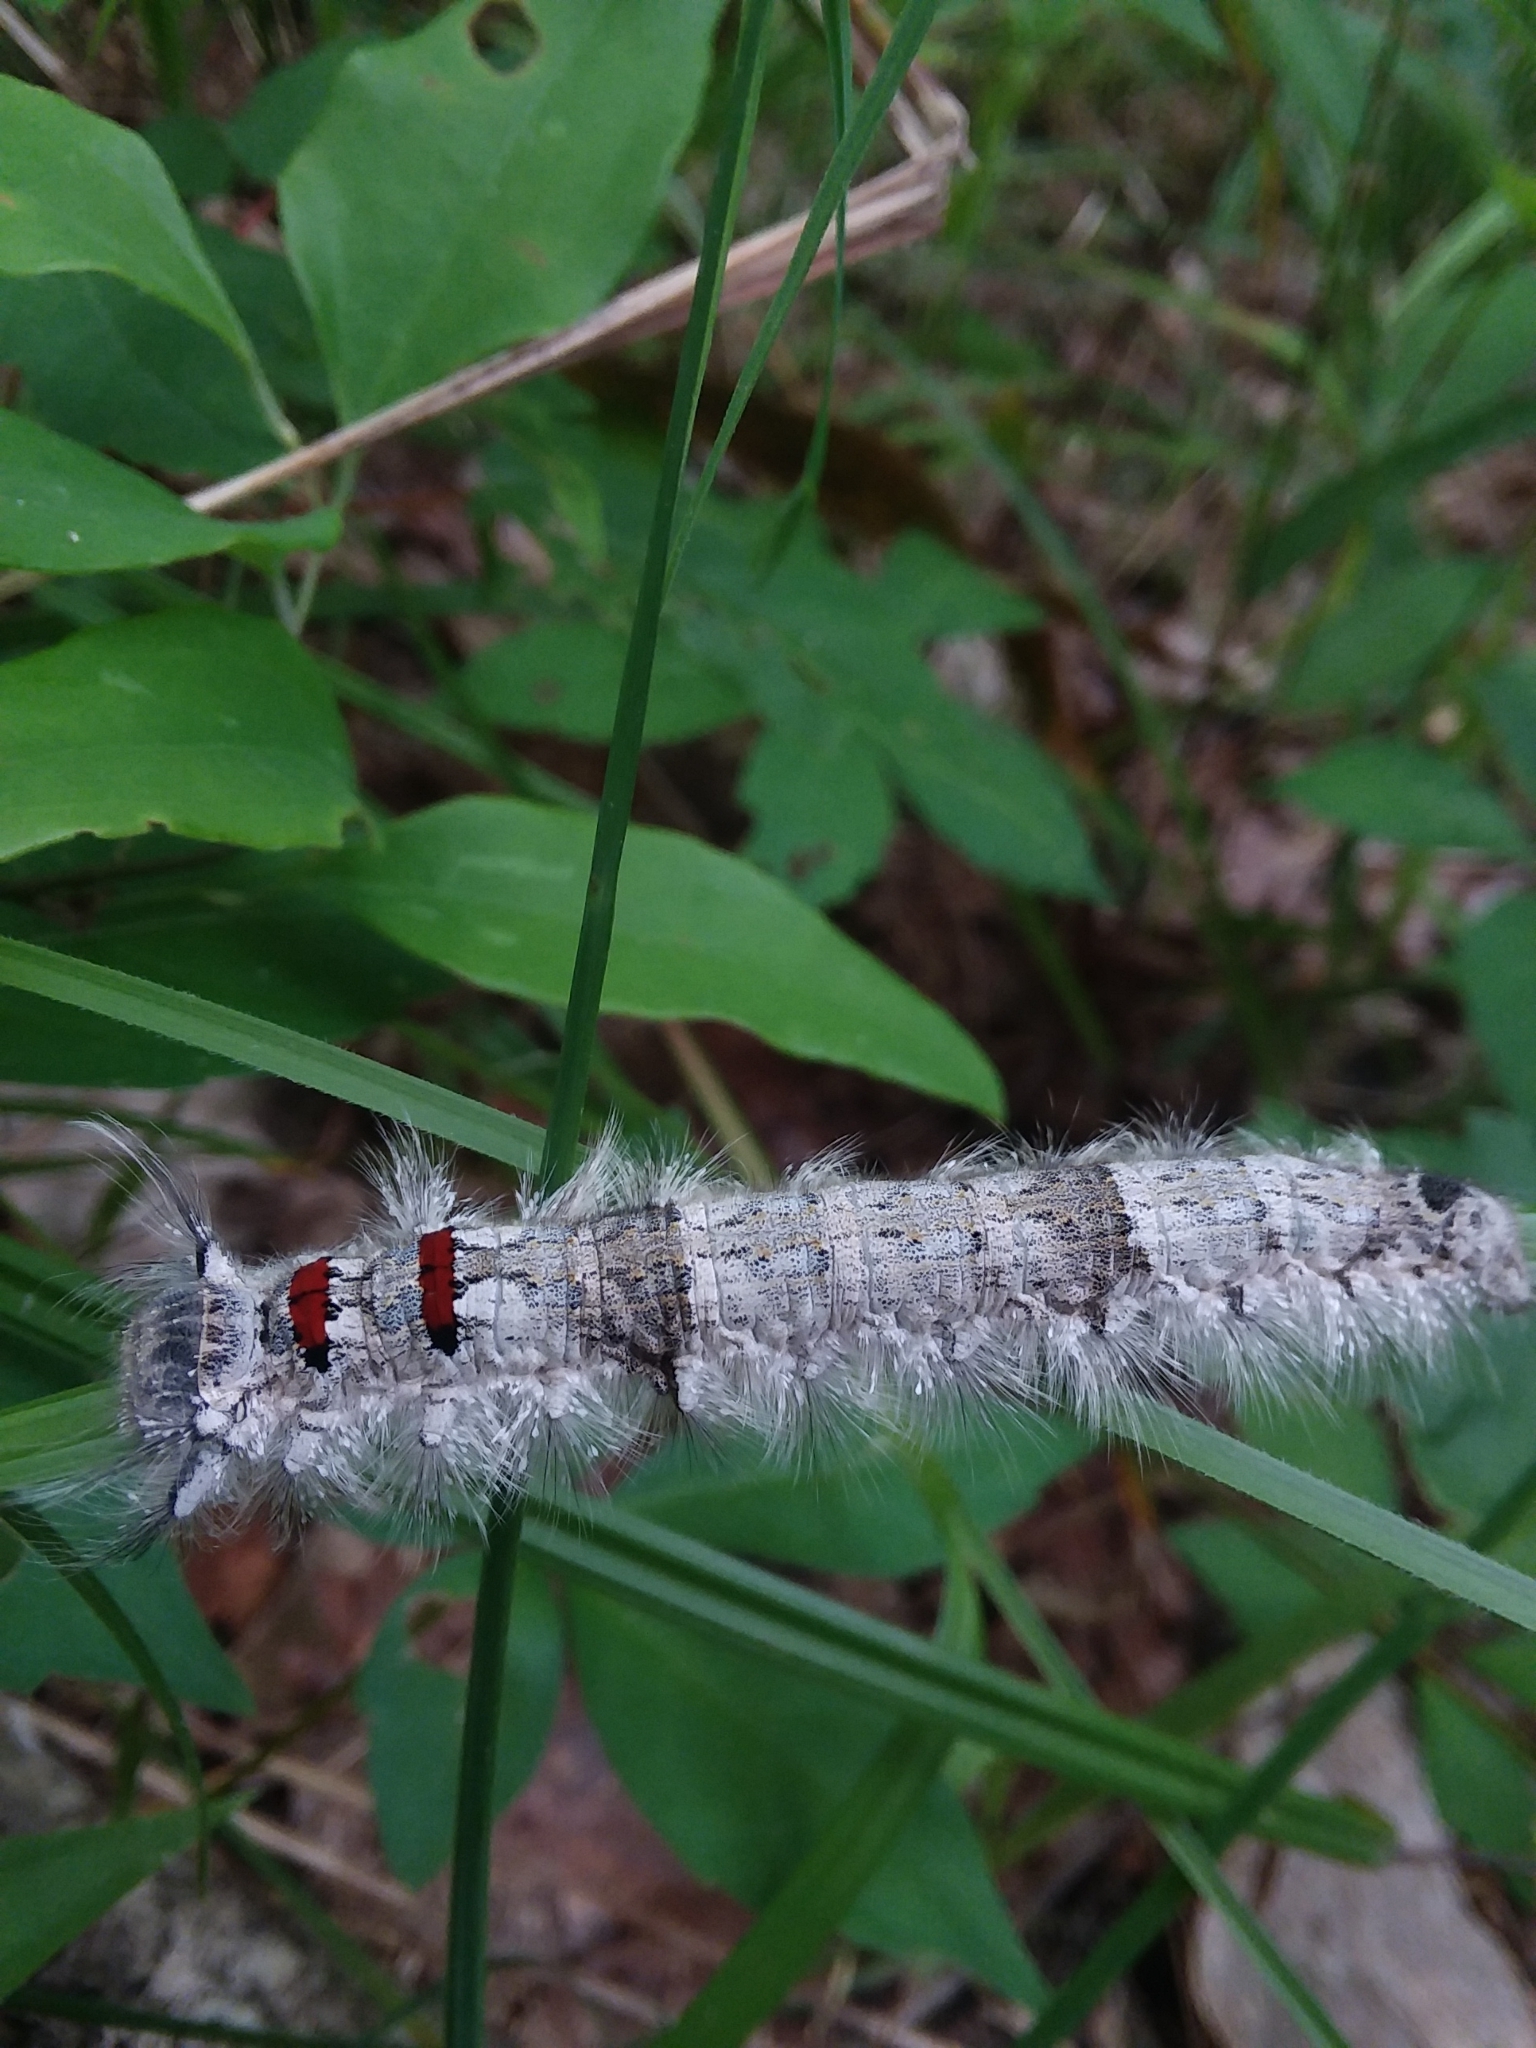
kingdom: Animalia
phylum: Arthropoda
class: Insecta
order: Lepidoptera
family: Lasiocampidae
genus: Phyllodesma
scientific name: Phyllodesma americana
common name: American lappet moth
